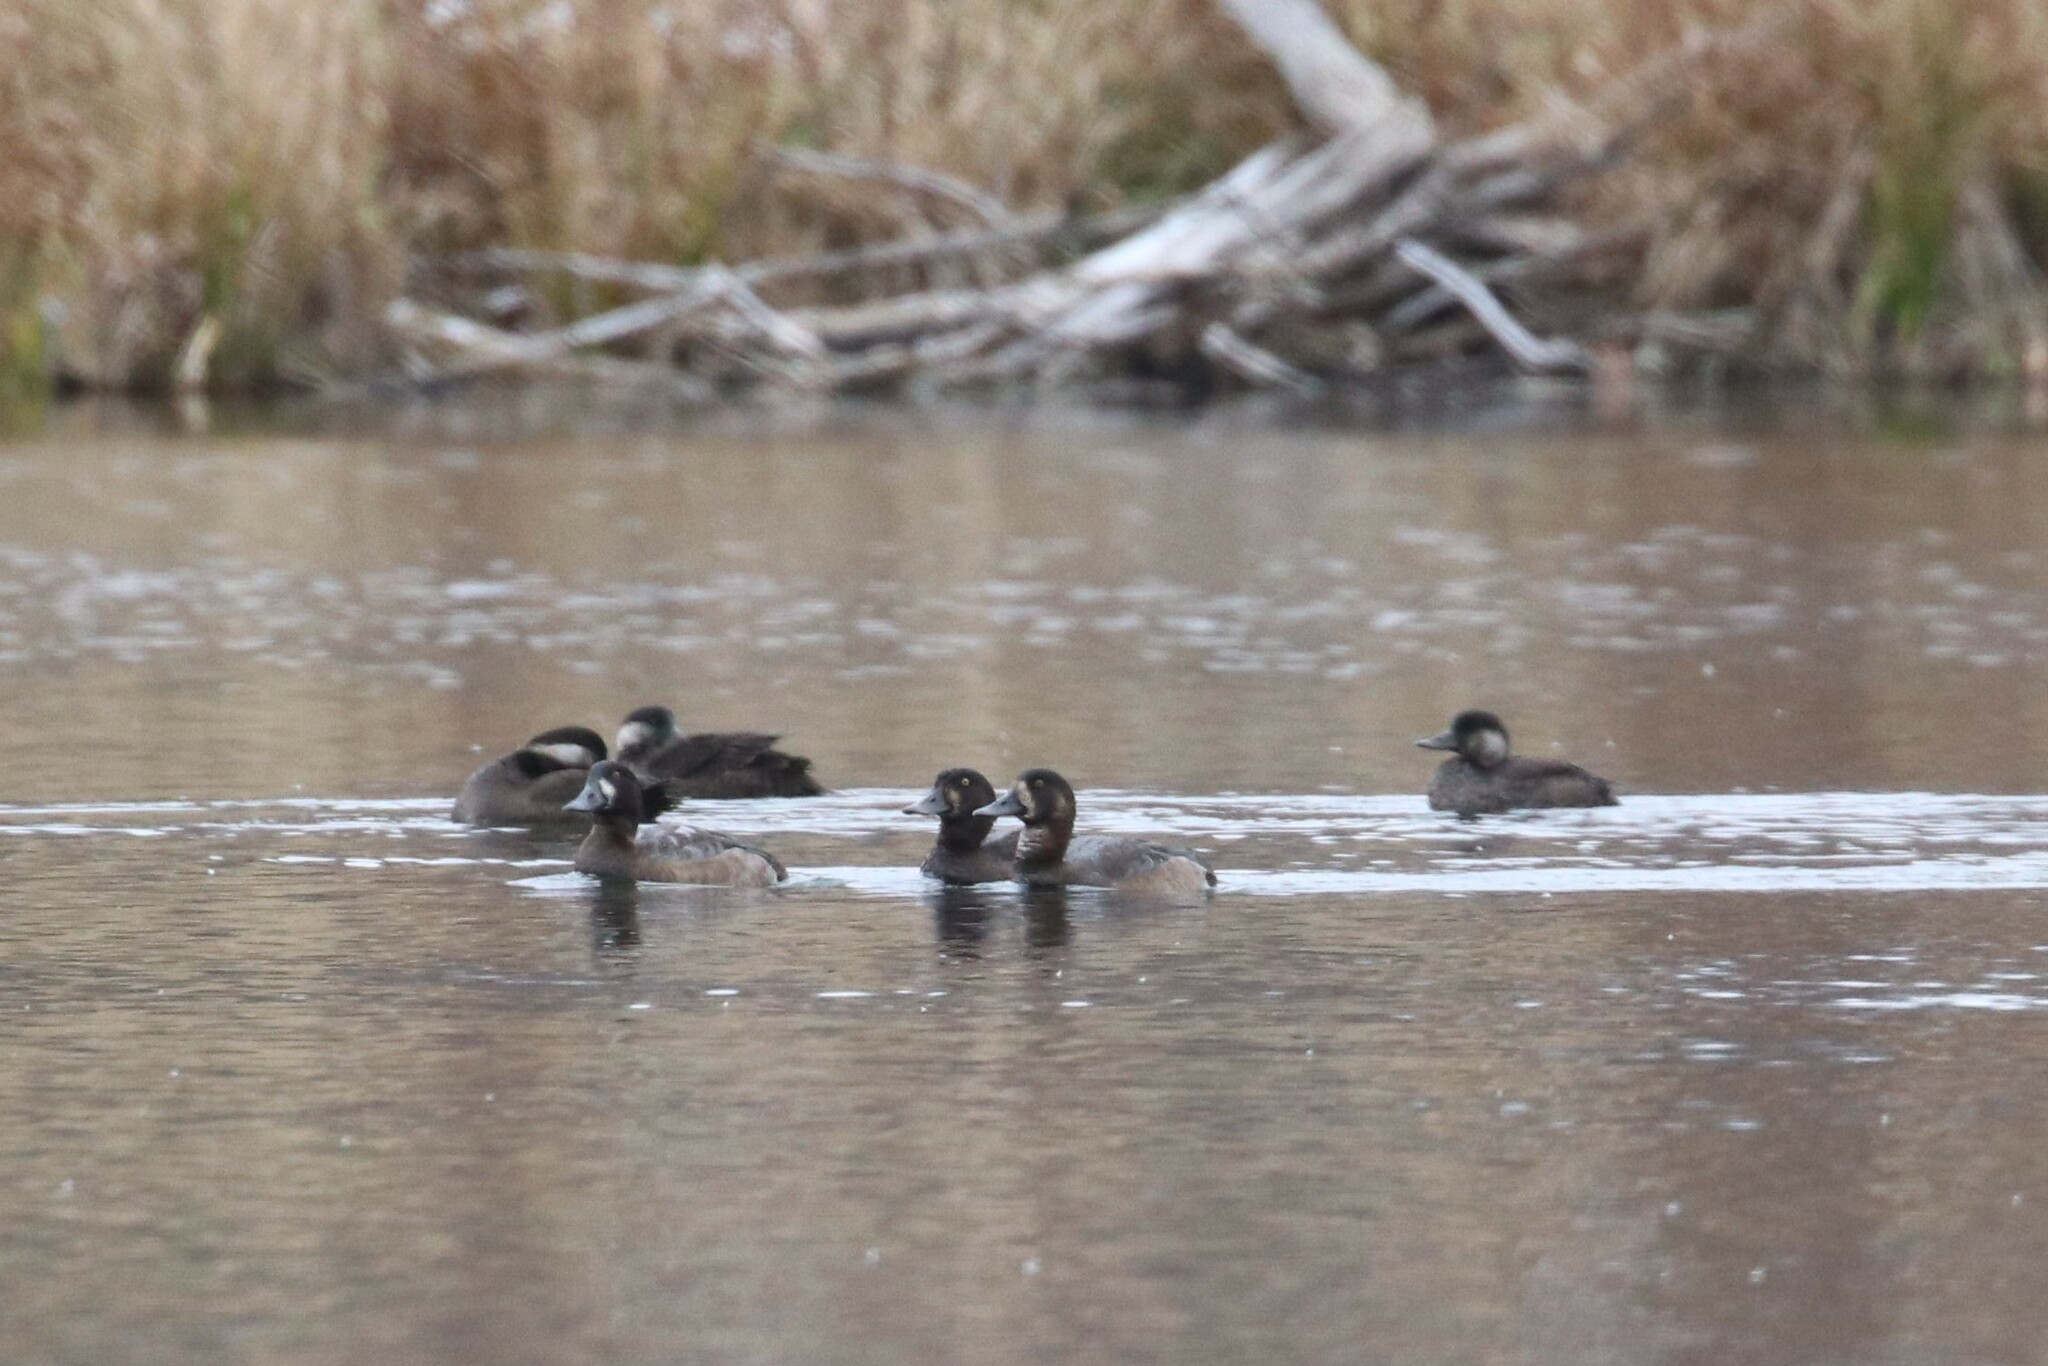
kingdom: Animalia
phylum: Chordata
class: Aves
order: Anseriformes
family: Anatidae
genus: Melanitta
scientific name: Melanitta nigra
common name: Common scoter
